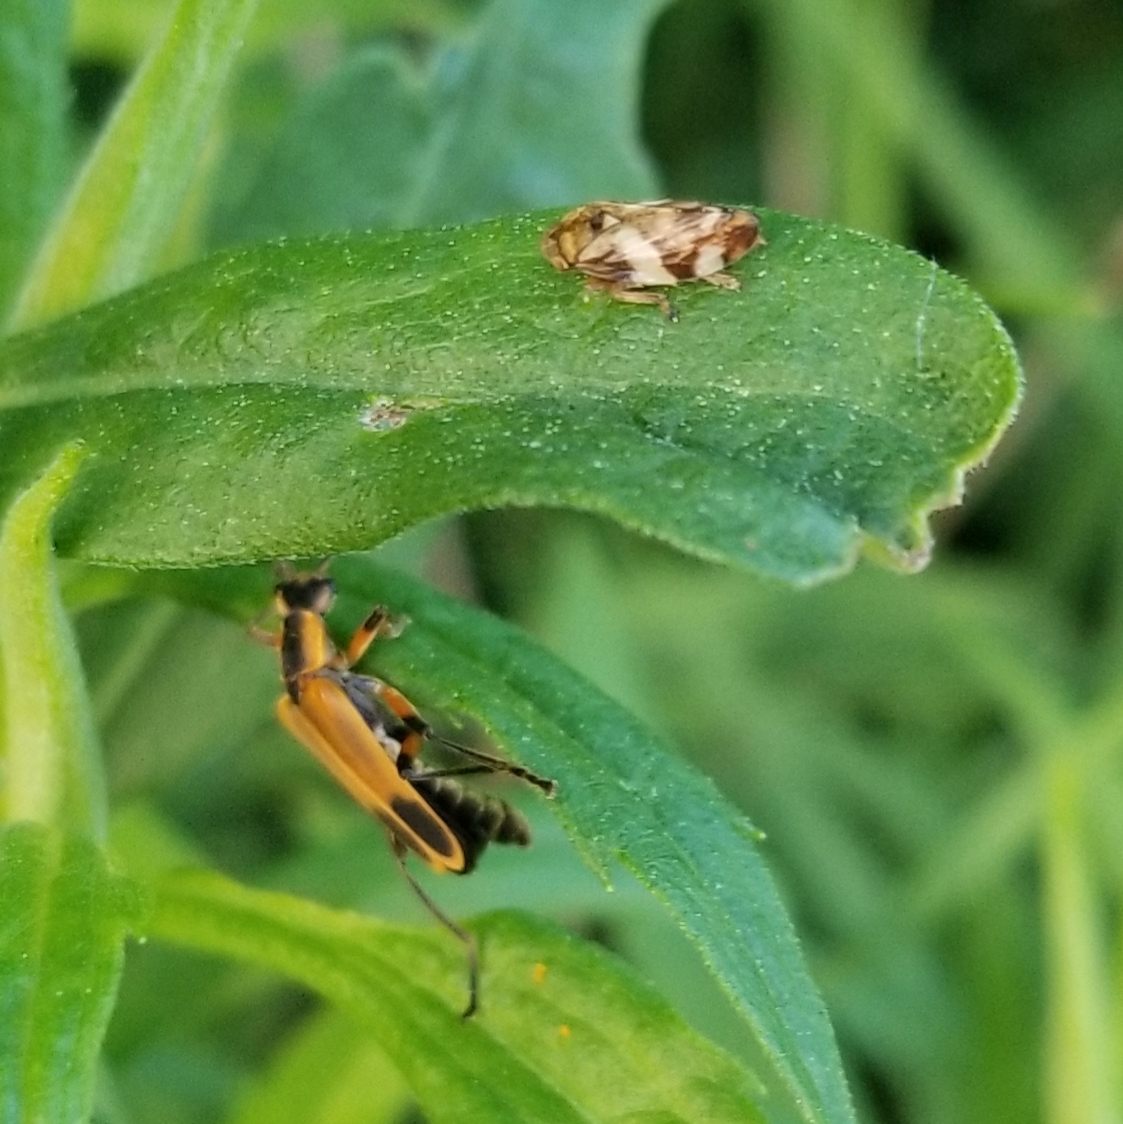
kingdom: Animalia
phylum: Arthropoda
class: Insecta
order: Coleoptera
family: Cantharidae
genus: Chauliognathus
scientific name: Chauliognathus marginatus
